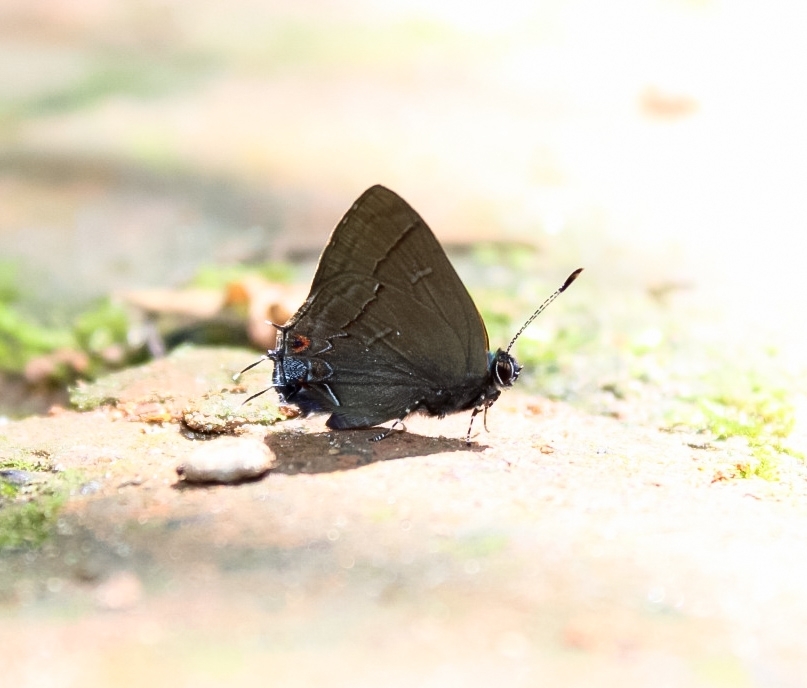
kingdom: Animalia
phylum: Arthropoda
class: Insecta
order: Lepidoptera
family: Lycaenidae
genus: Calycopis
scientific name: Calycopis
